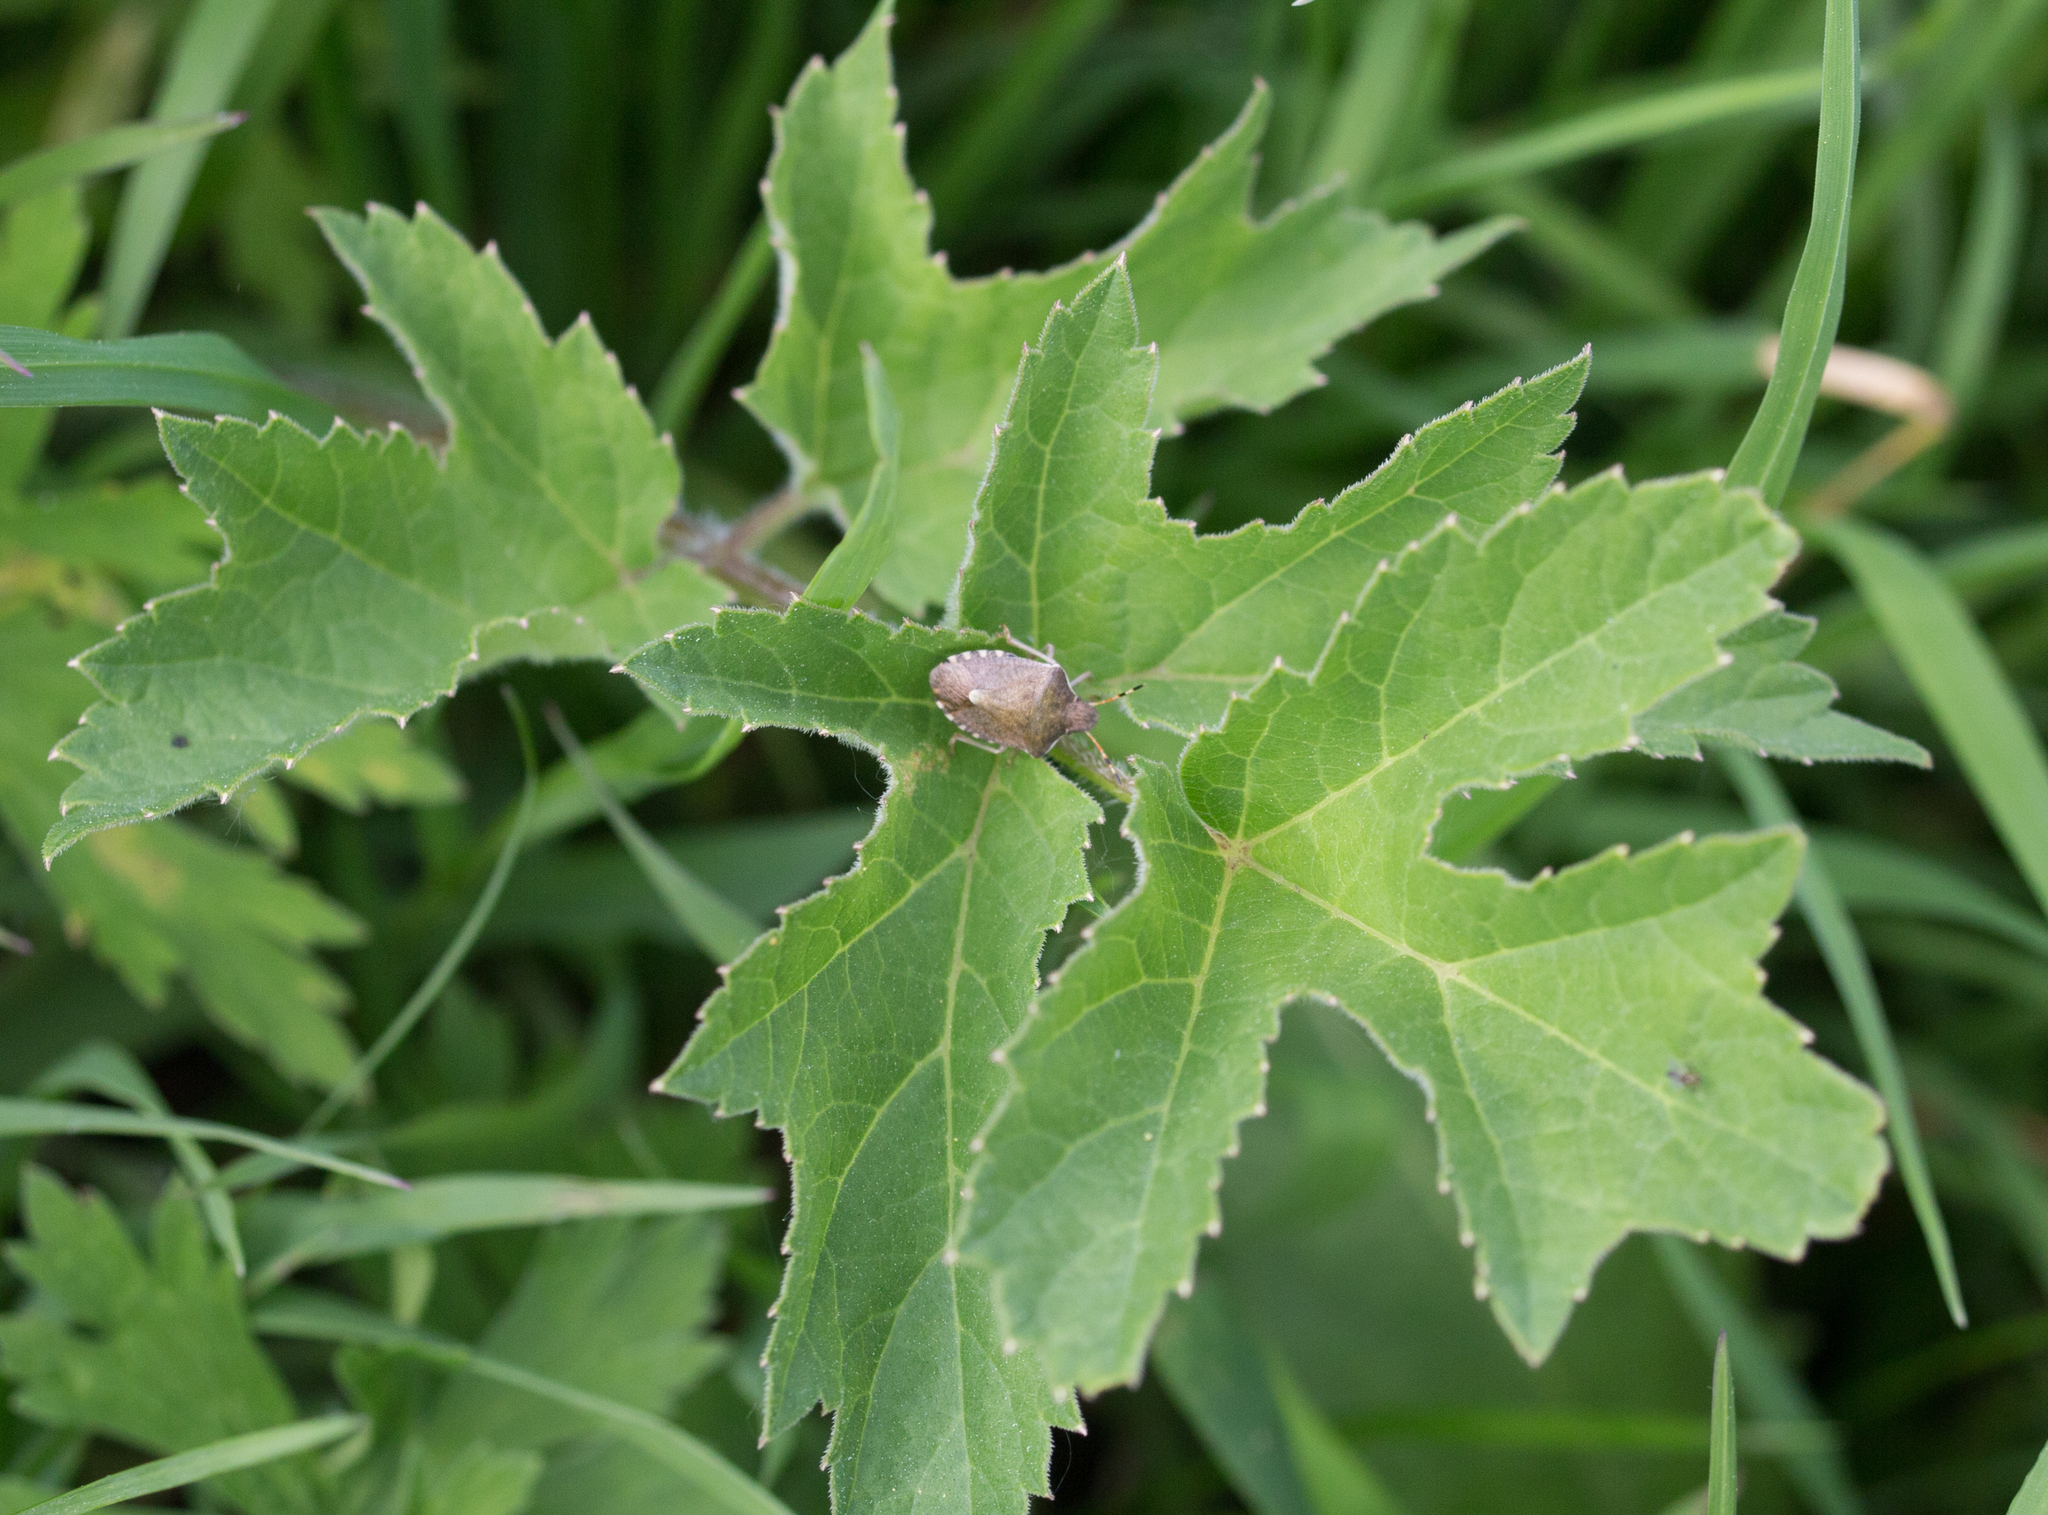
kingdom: Animalia
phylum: Arthropoda
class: Insecta
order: Hemiptera
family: Pentatomidae
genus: Holcostethus
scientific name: Holcostethus strictus
